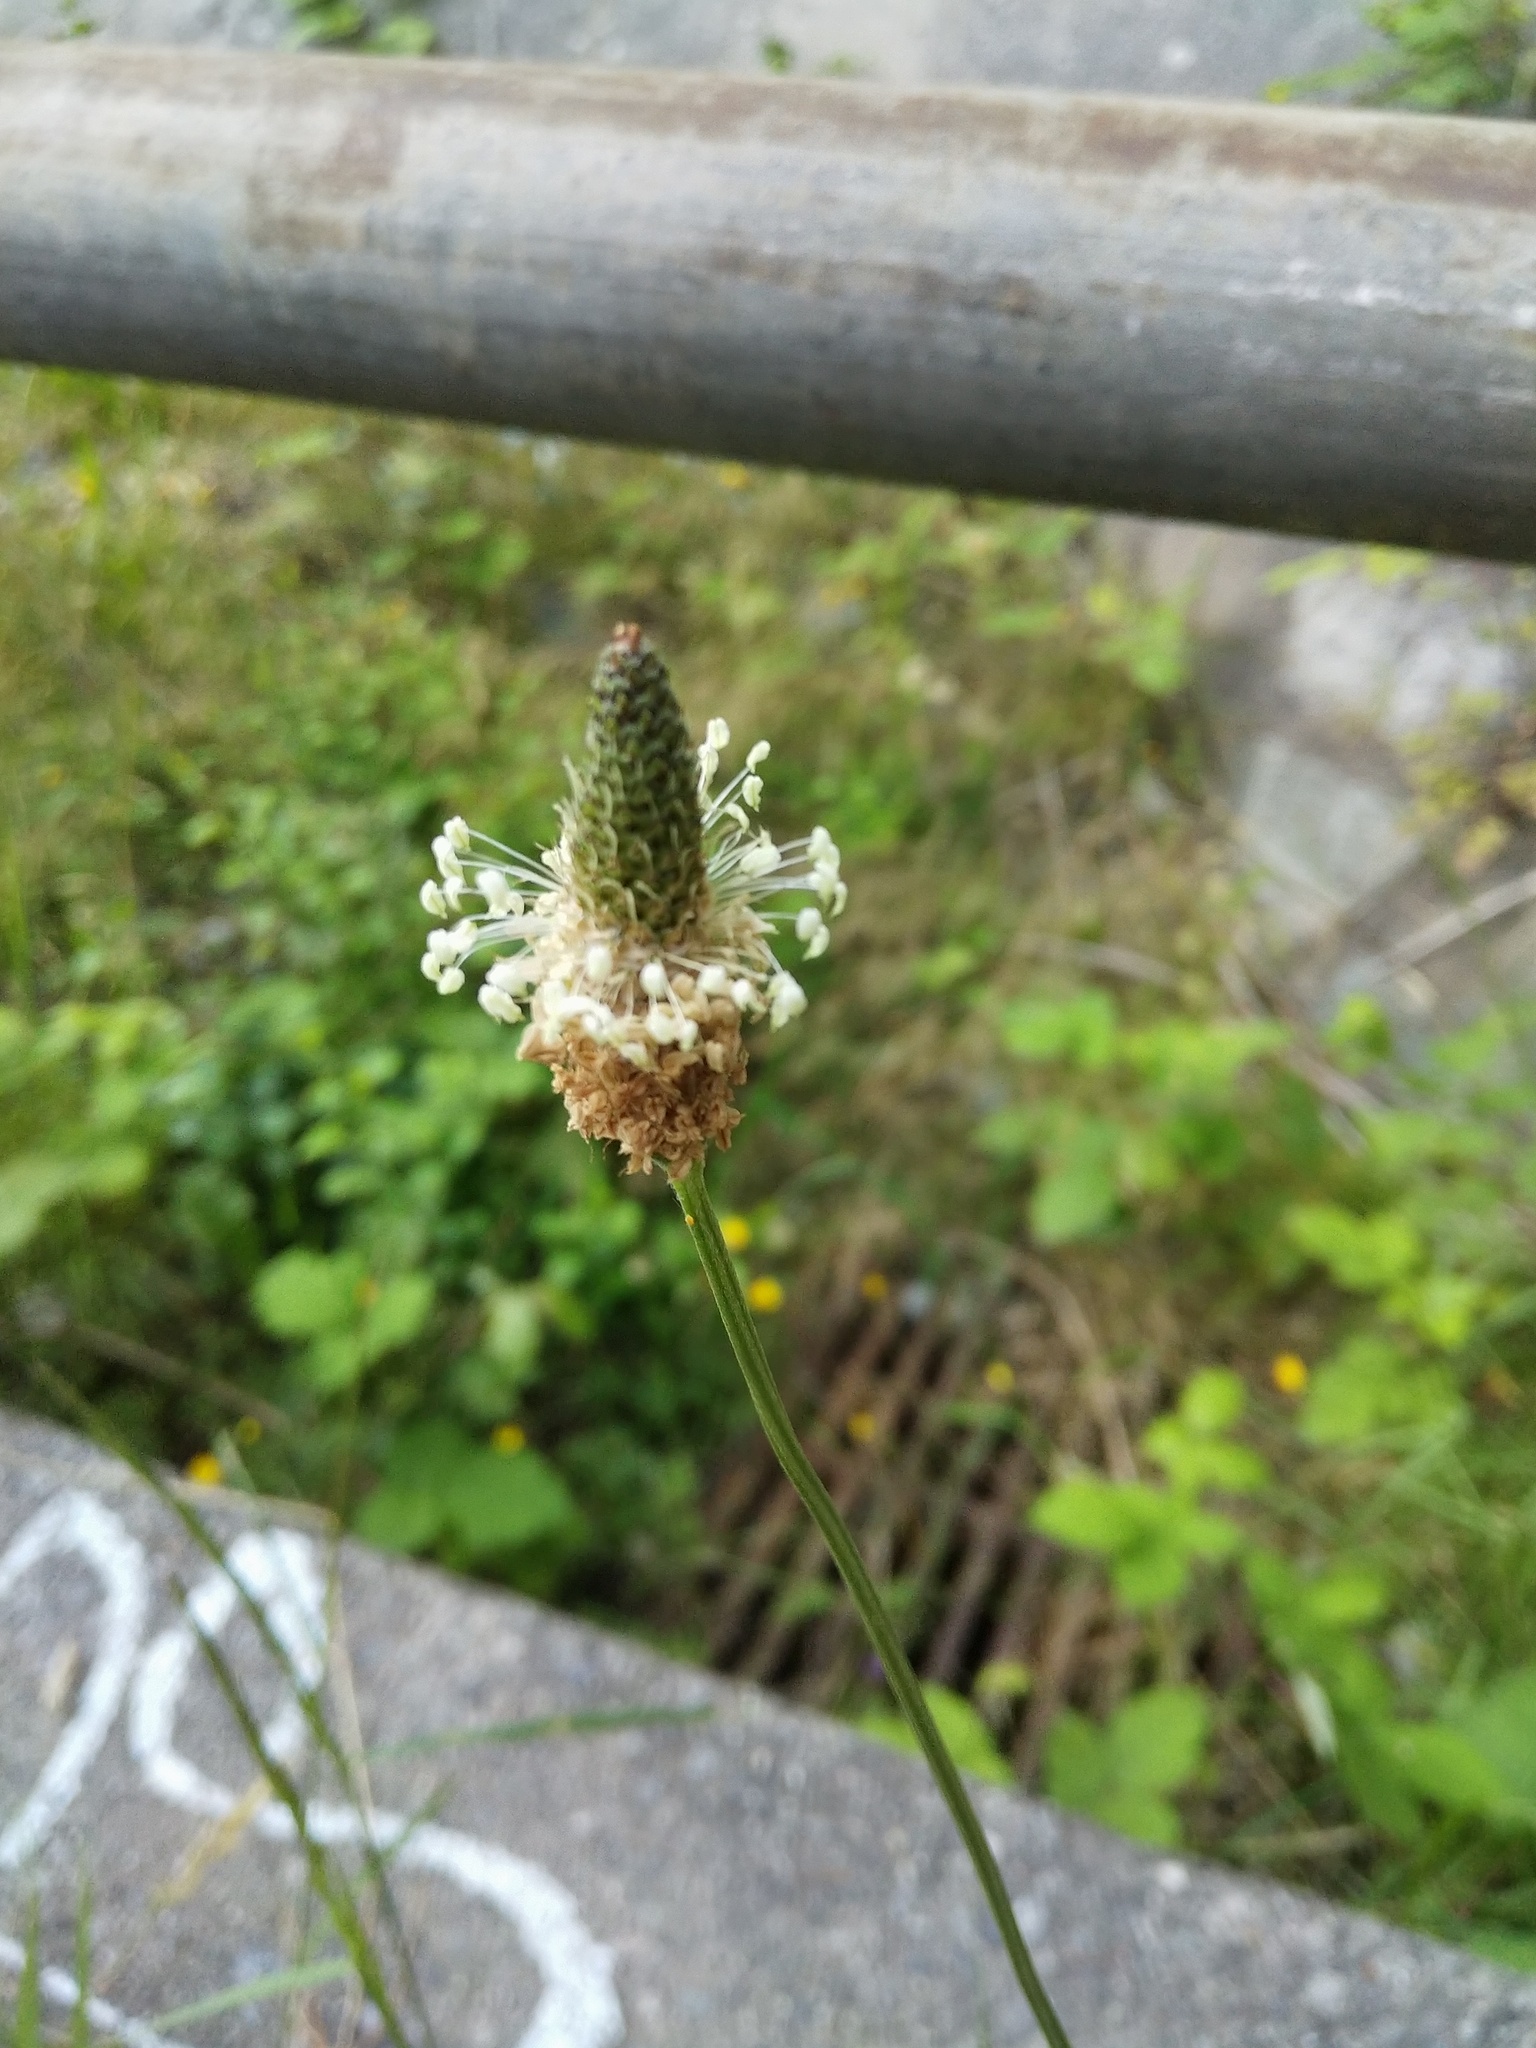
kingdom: Plantae
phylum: Tracheophyta
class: Magnoliopsida
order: Lamiales
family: Plantaginaceae
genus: Plantago
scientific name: Plantago lanceolata
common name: Ribwort plantain
